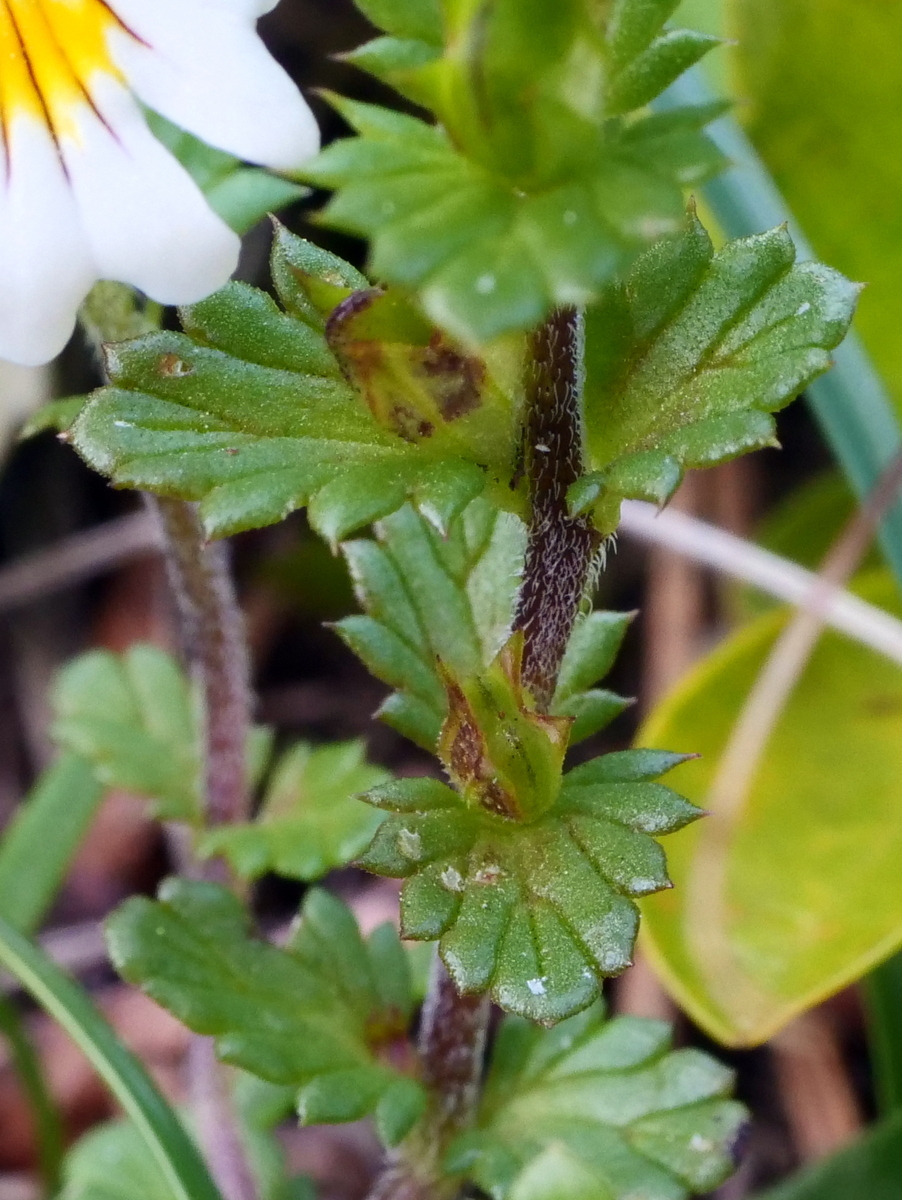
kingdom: Plantae
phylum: Tracheophyta
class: Magnoliopsida
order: Lamiales
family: Orobanchaceae
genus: Euphrasia
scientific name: Euphrasia officinalis
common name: Eyebright
